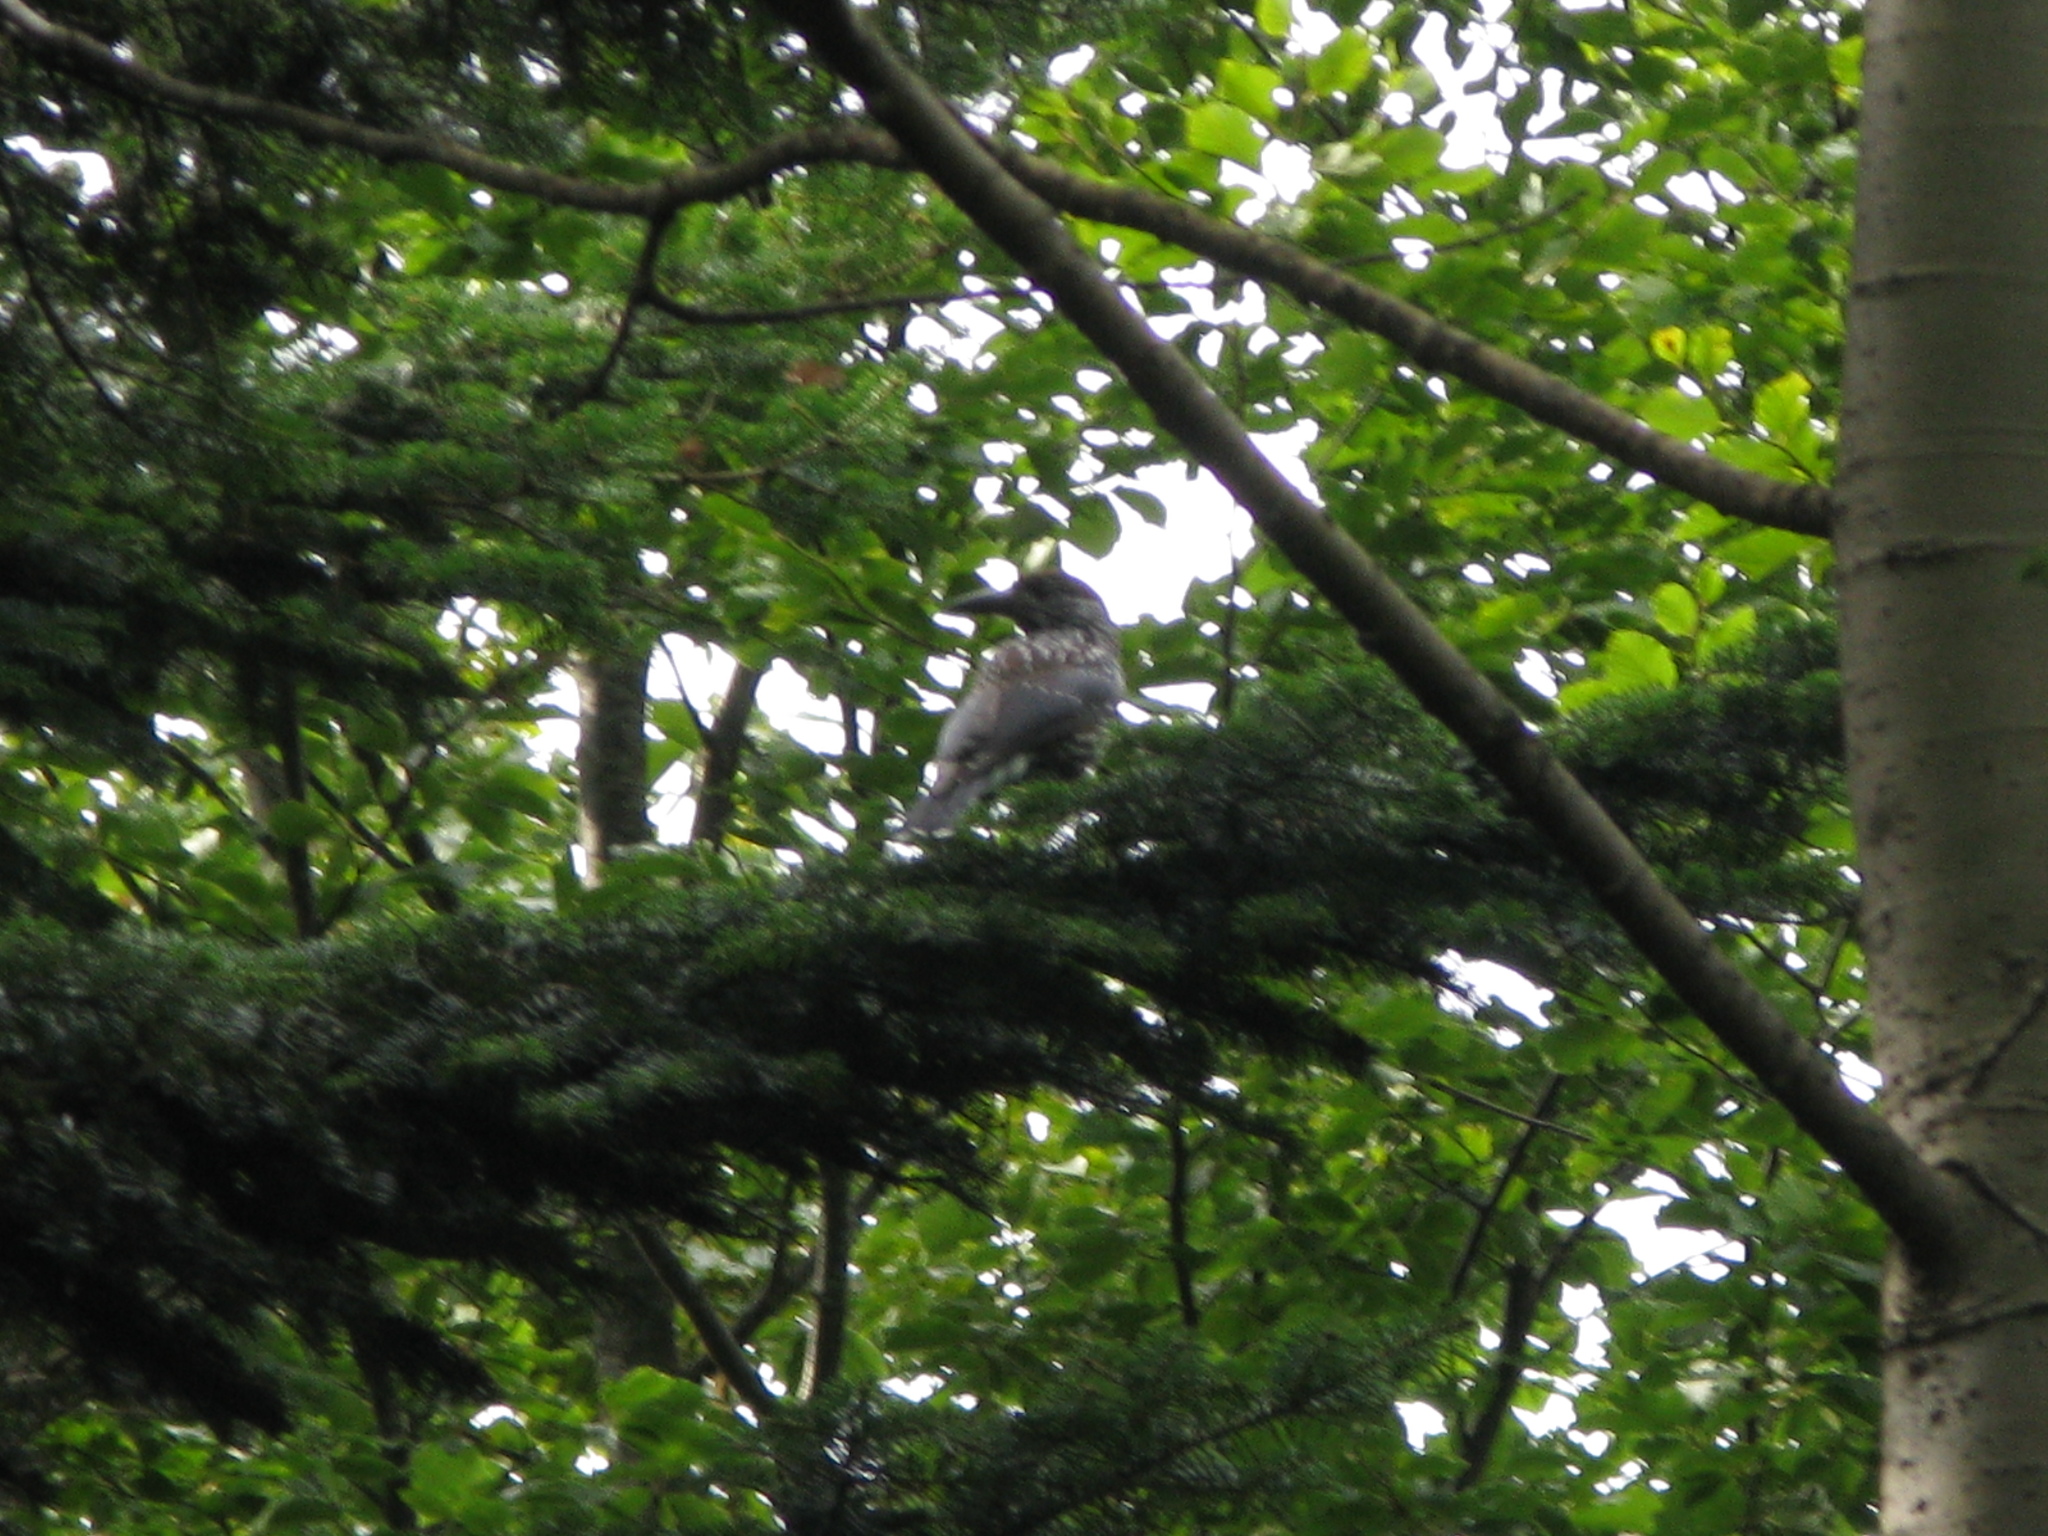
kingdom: Animalia
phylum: Chordata
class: Aves
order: Passeriformes
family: Corvidae
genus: Nucifraga
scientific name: Nucifraga caryocatactes
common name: Spotted nutcracker
